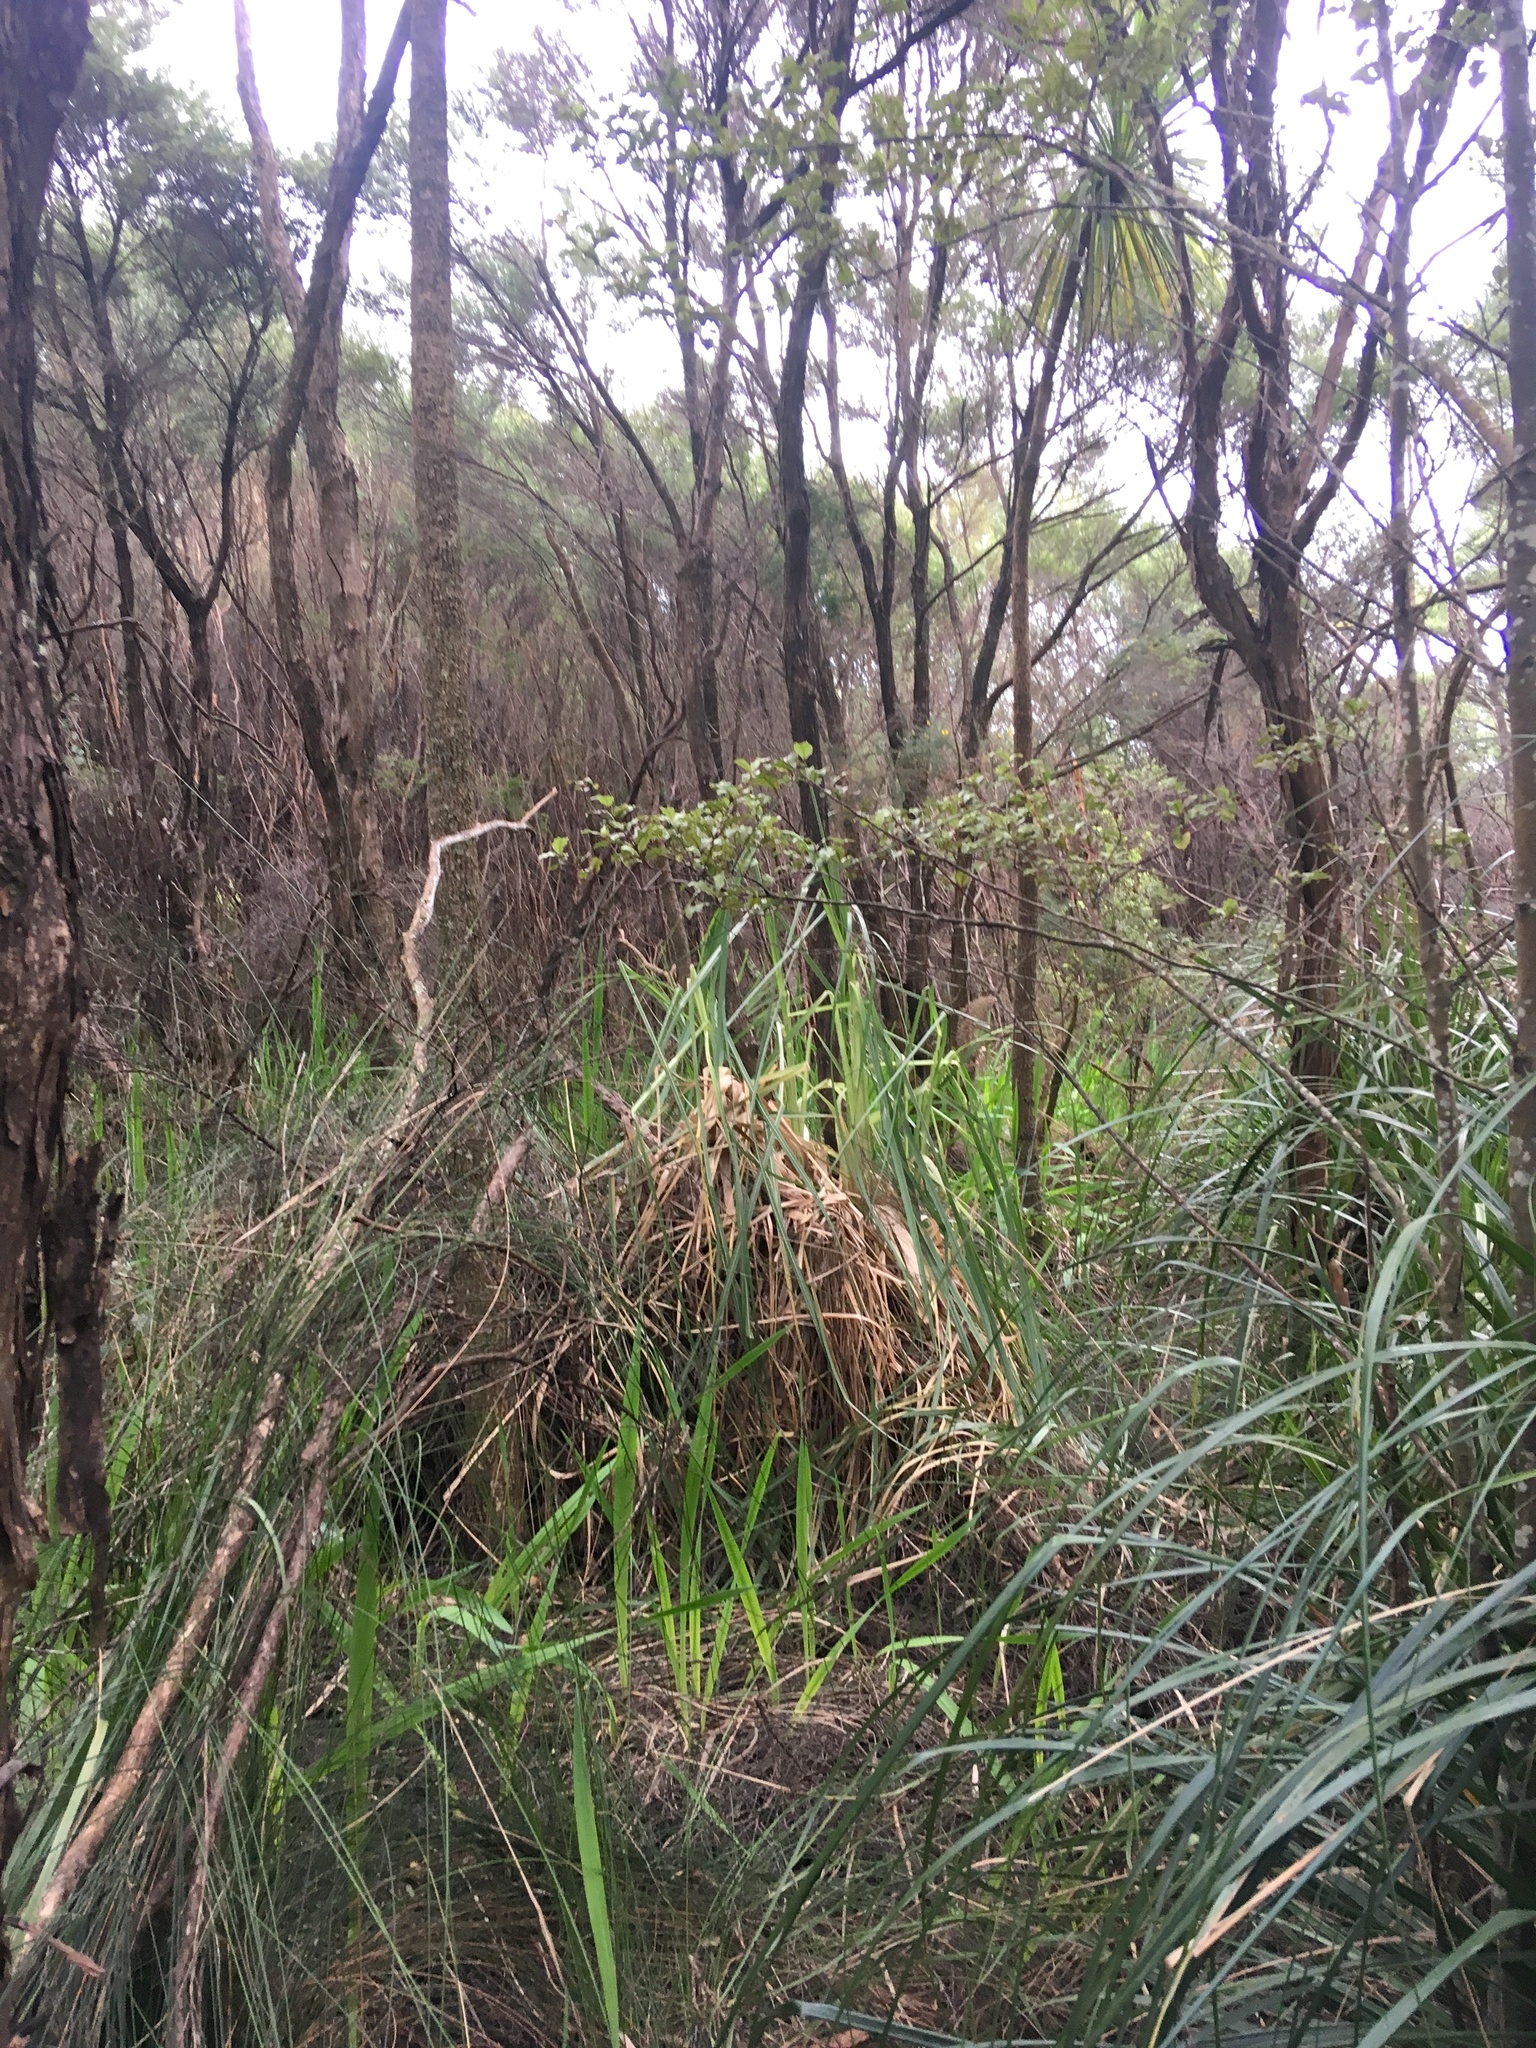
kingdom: Plantae
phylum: Tracheophyta
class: Liliopsida
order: Poales
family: Poaceae
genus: Cortaderia
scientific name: Cortaderia selloana
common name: Uruguayan pampas grass
